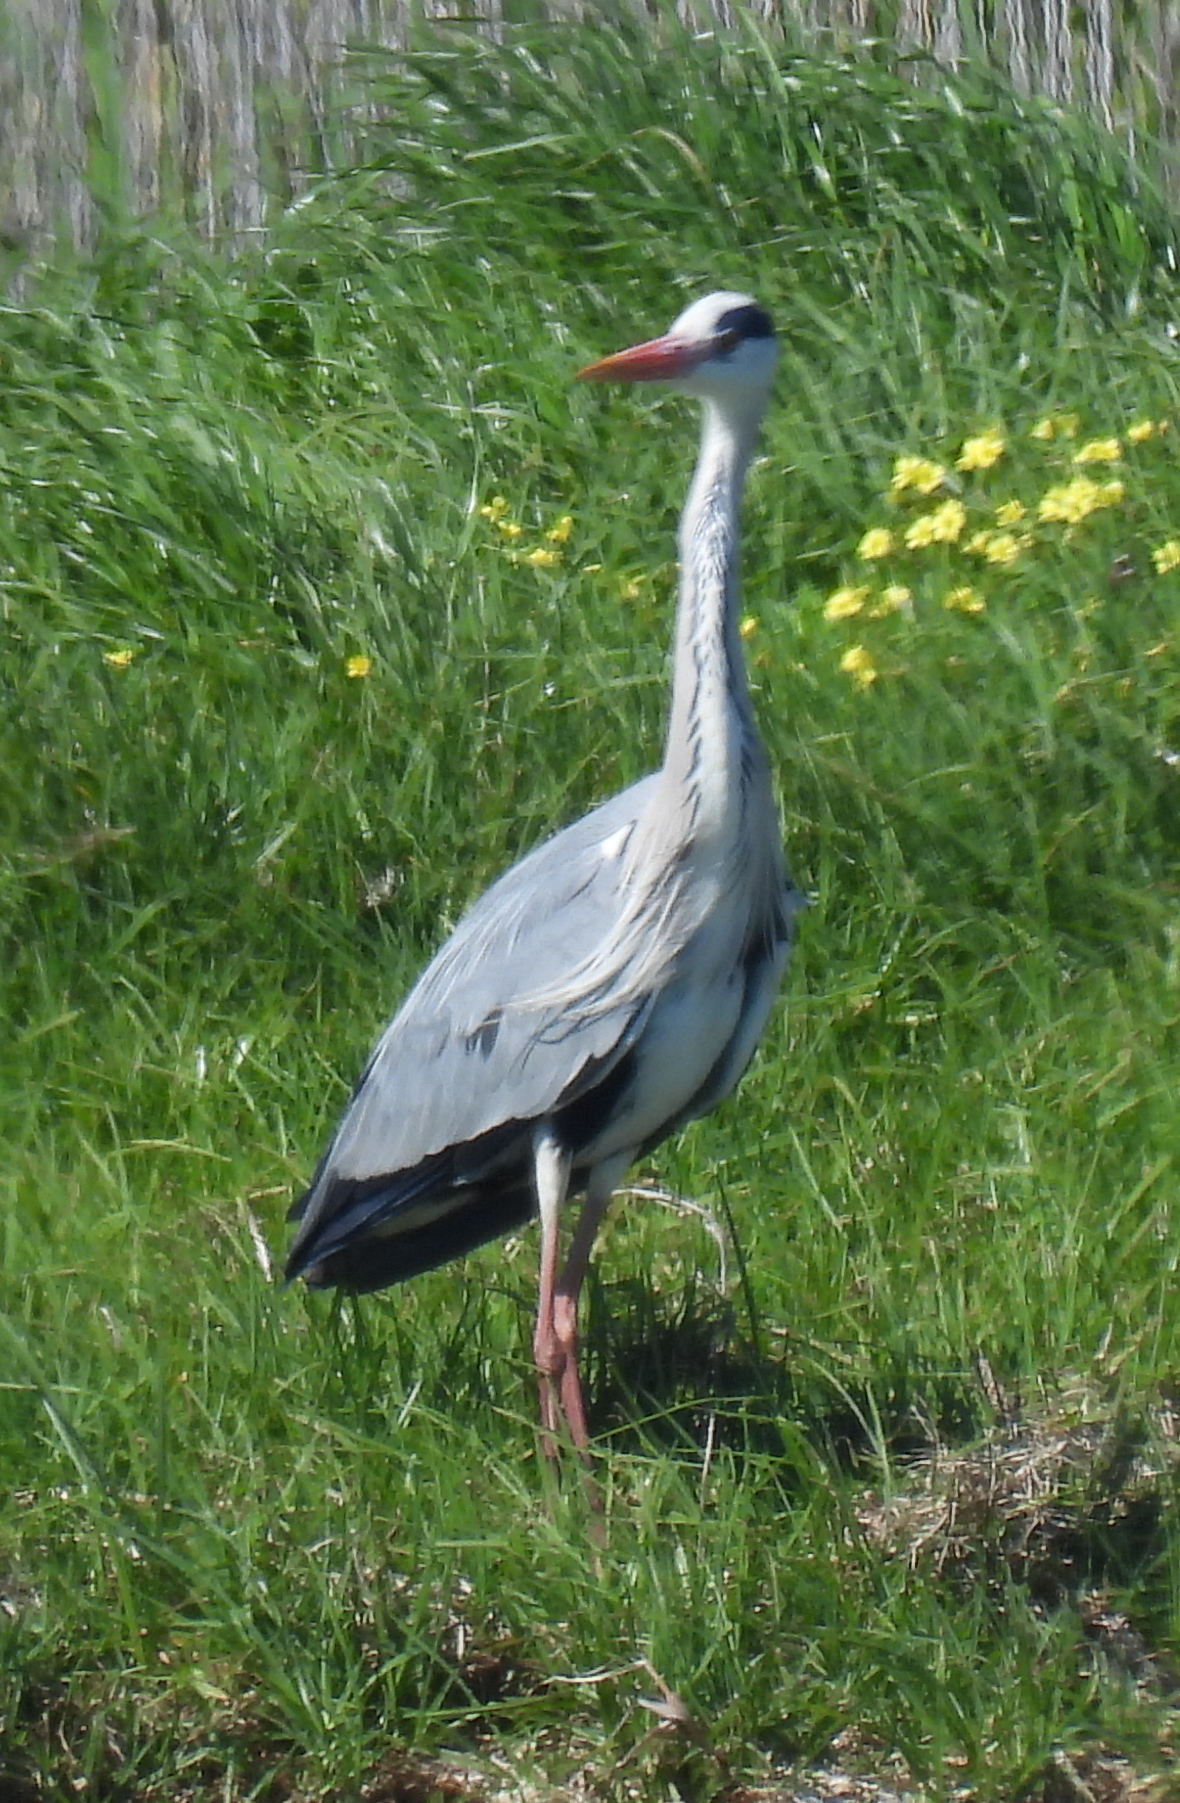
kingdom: Animalia
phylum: Chordata
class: Aves
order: Pelecaniformes
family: Ardeidae
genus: Ardea
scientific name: Ardea cinerea
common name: Grey heron
